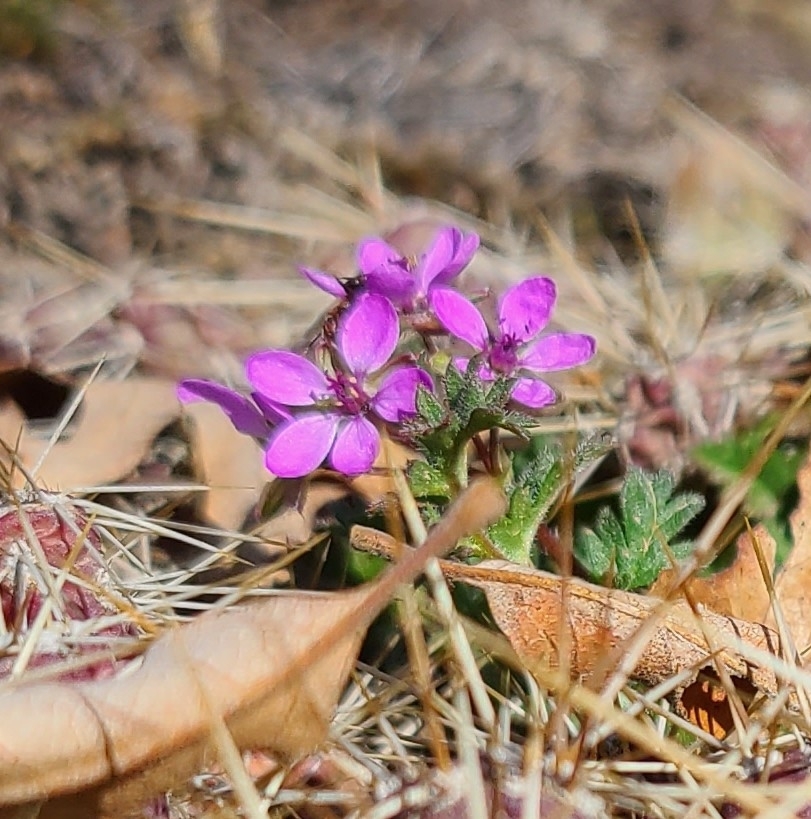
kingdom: Plantae
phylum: Tracheophyta
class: Magnoliopsida
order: Geraniales
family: Geraniaceae
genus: Erodium
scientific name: Erodium cicutarium
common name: Common stork's-bill
